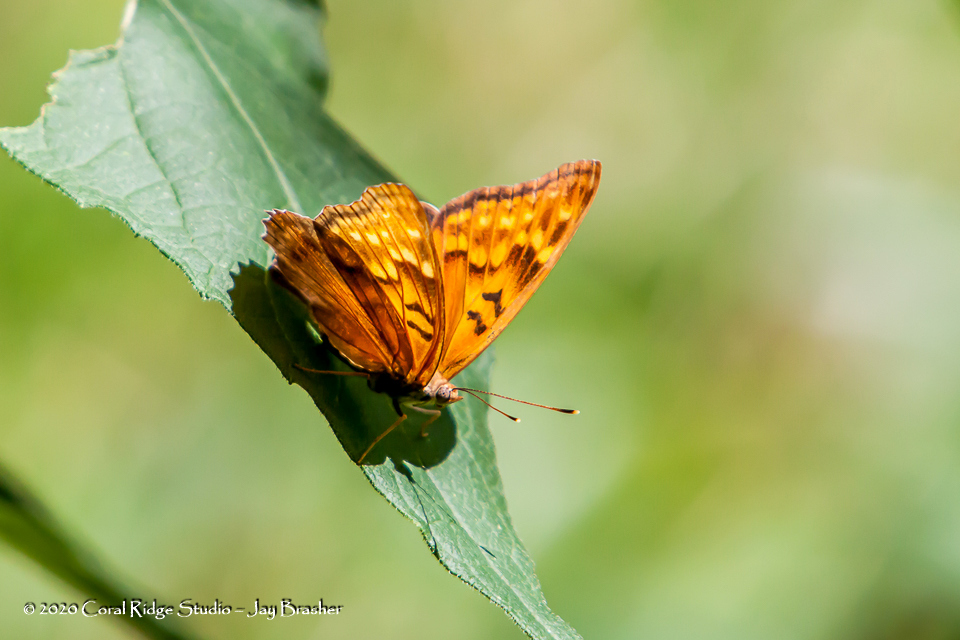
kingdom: Animalia
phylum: Arthropoda
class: Insecta
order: Lepidoptera
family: Nymphalidae
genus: Asterocampa
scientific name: Asterocampa clyton
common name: Tawny emperor
